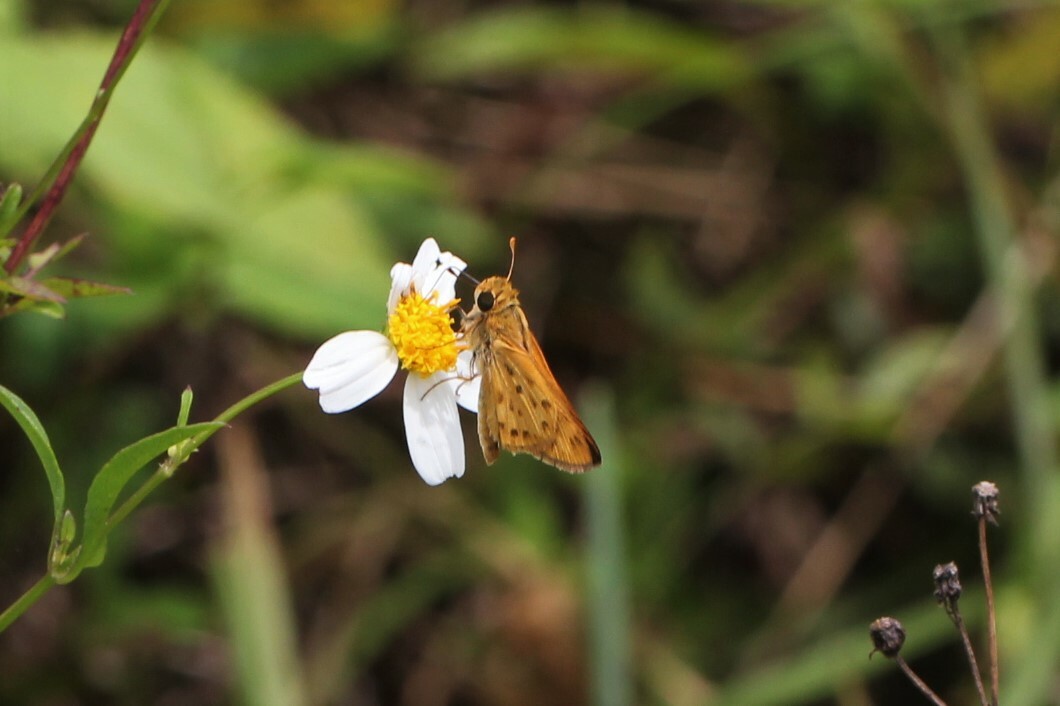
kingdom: Animalia
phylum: Arthropoda
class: Insecta
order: Lepidoptera
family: Hesperiidae
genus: Hylephila
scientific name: Hylephila phyleus
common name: Fiery skipper
